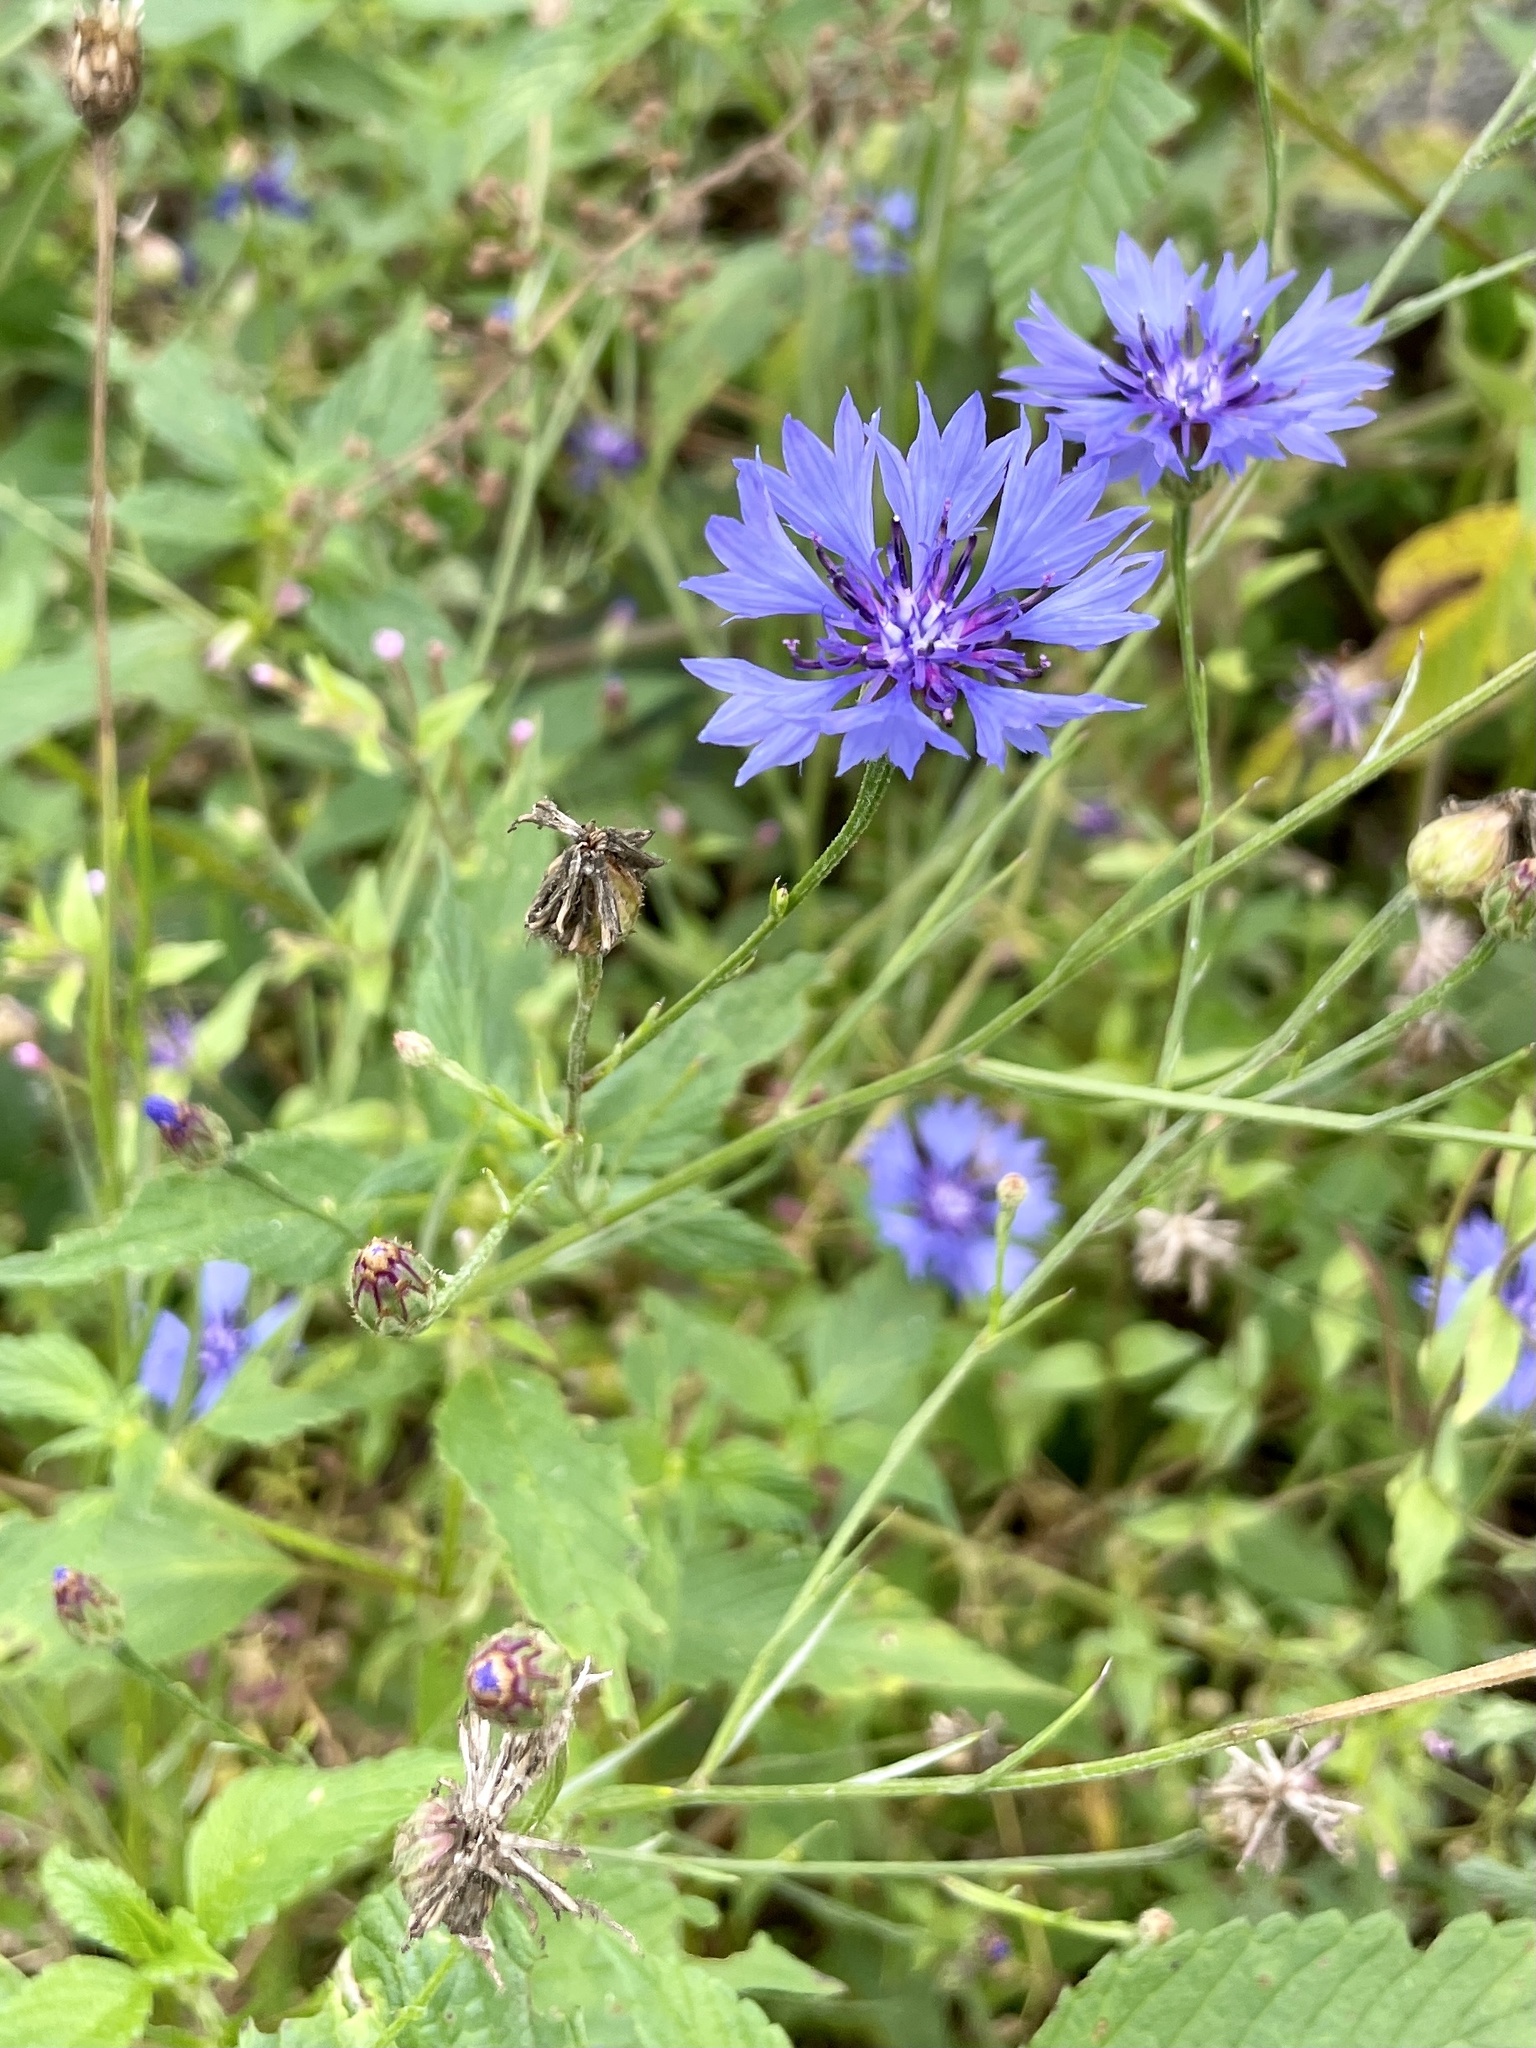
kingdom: Plantae
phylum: Tracheophyta
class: Magnoliopsida
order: Asterales
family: Asteraceae
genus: Centaurea
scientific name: Centaurea cyanus
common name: Cornflower
